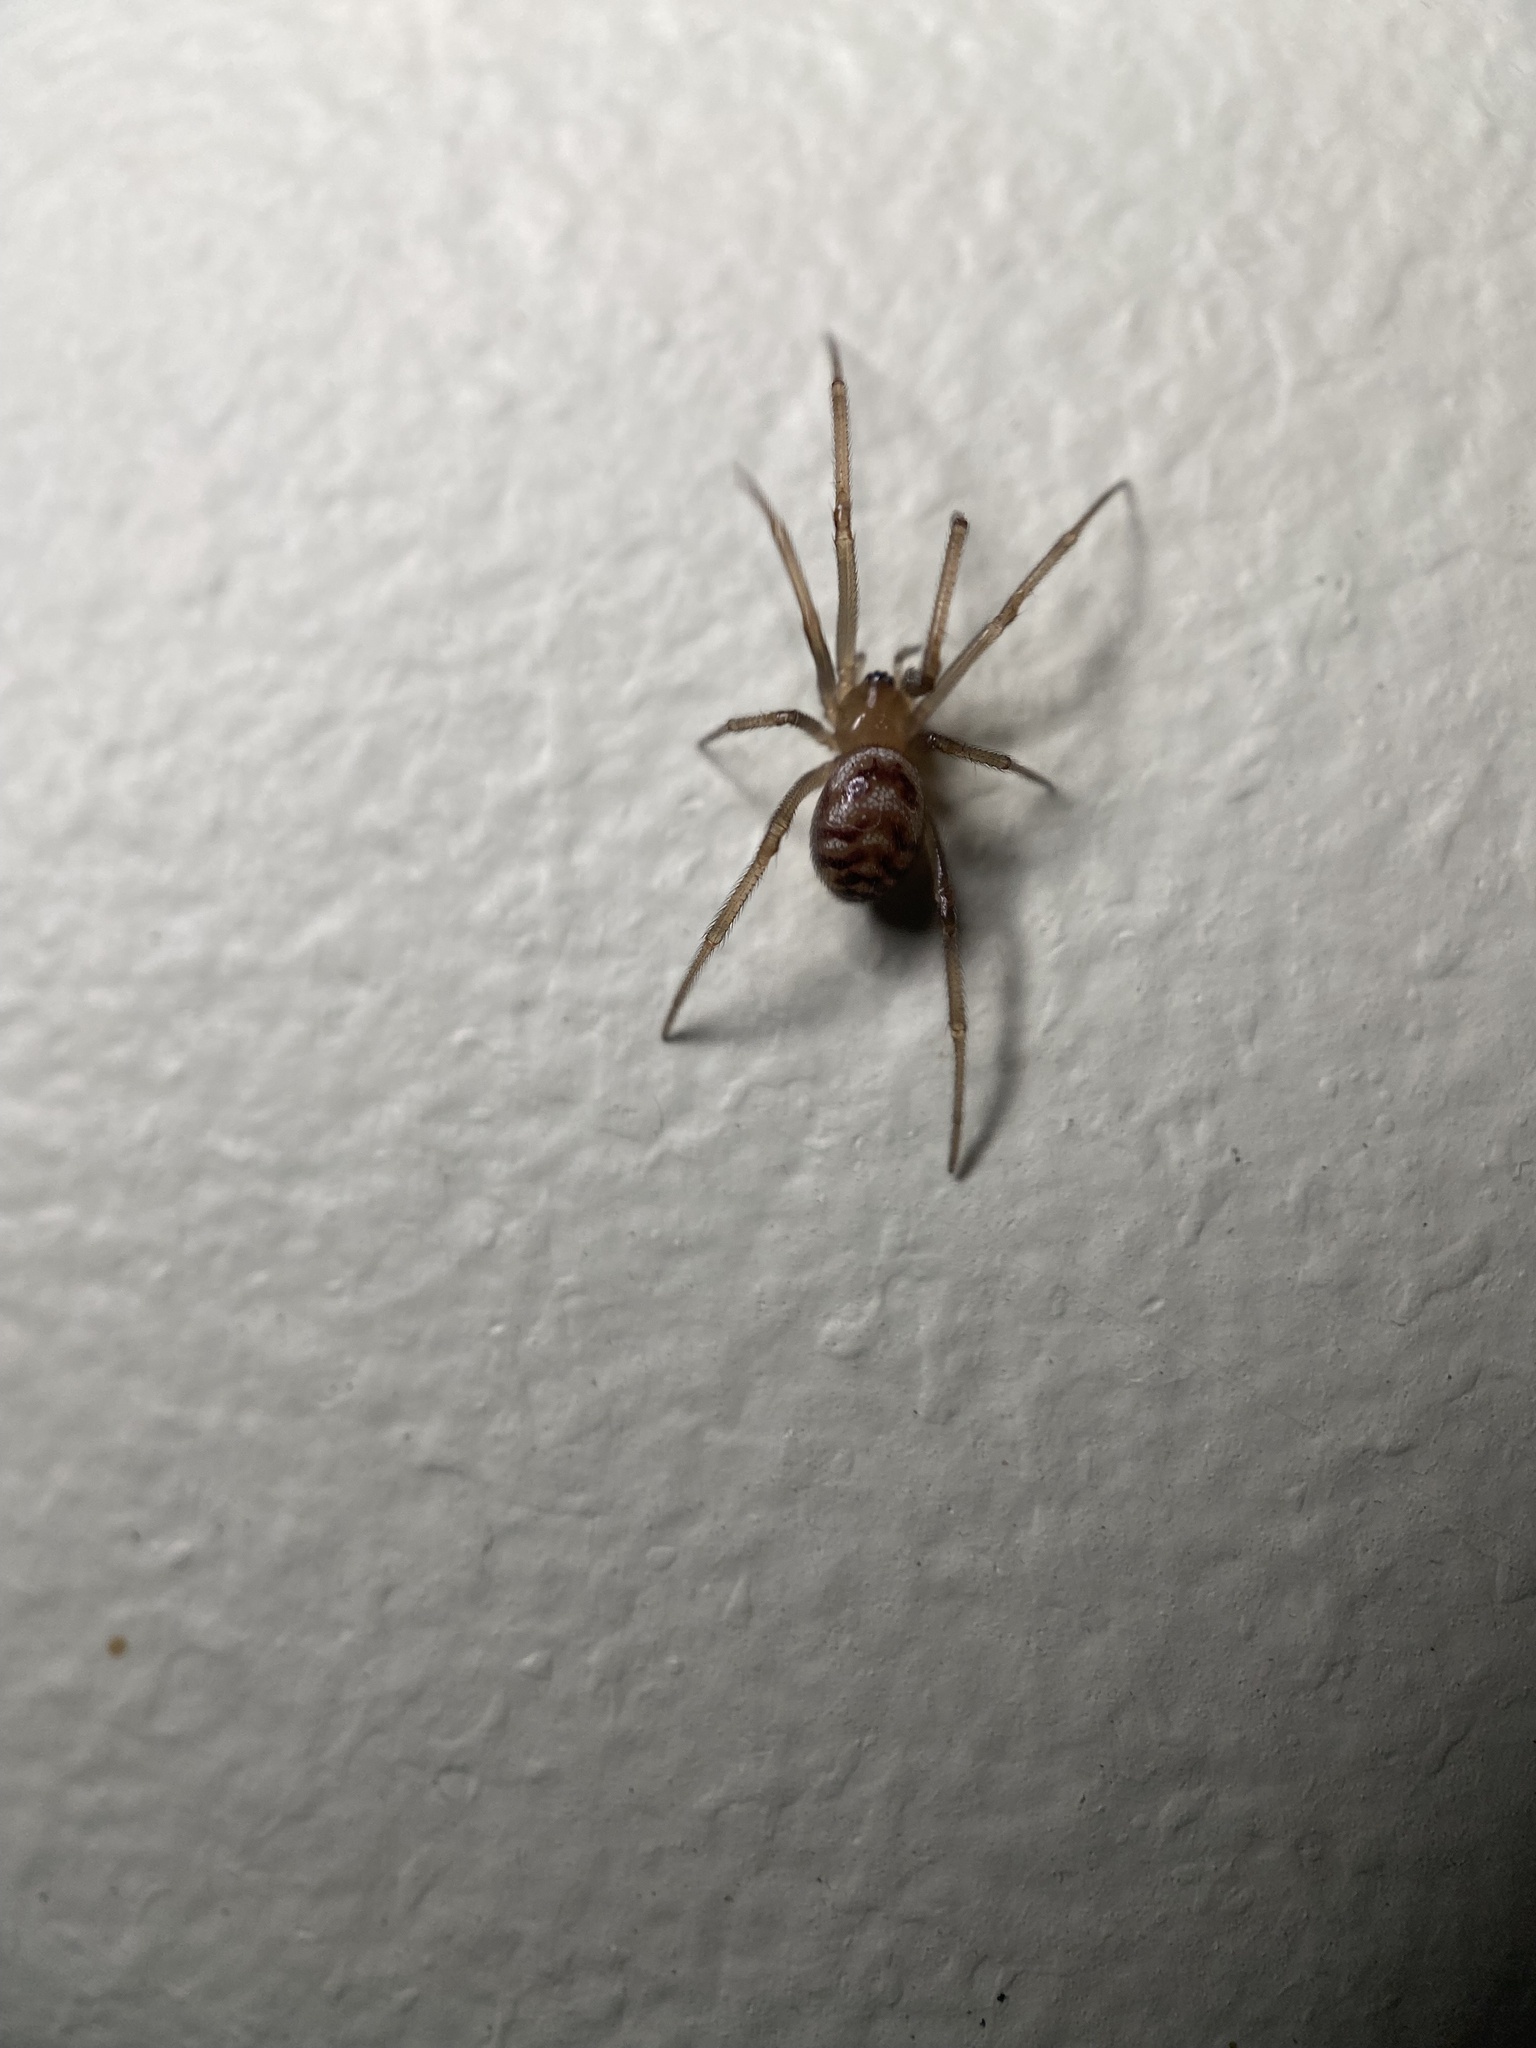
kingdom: Animalia
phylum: Arthropoda
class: Arachnida
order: Araneae
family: Theridiidae
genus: Steatoda
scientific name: Steatoda grossa
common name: False black widow
